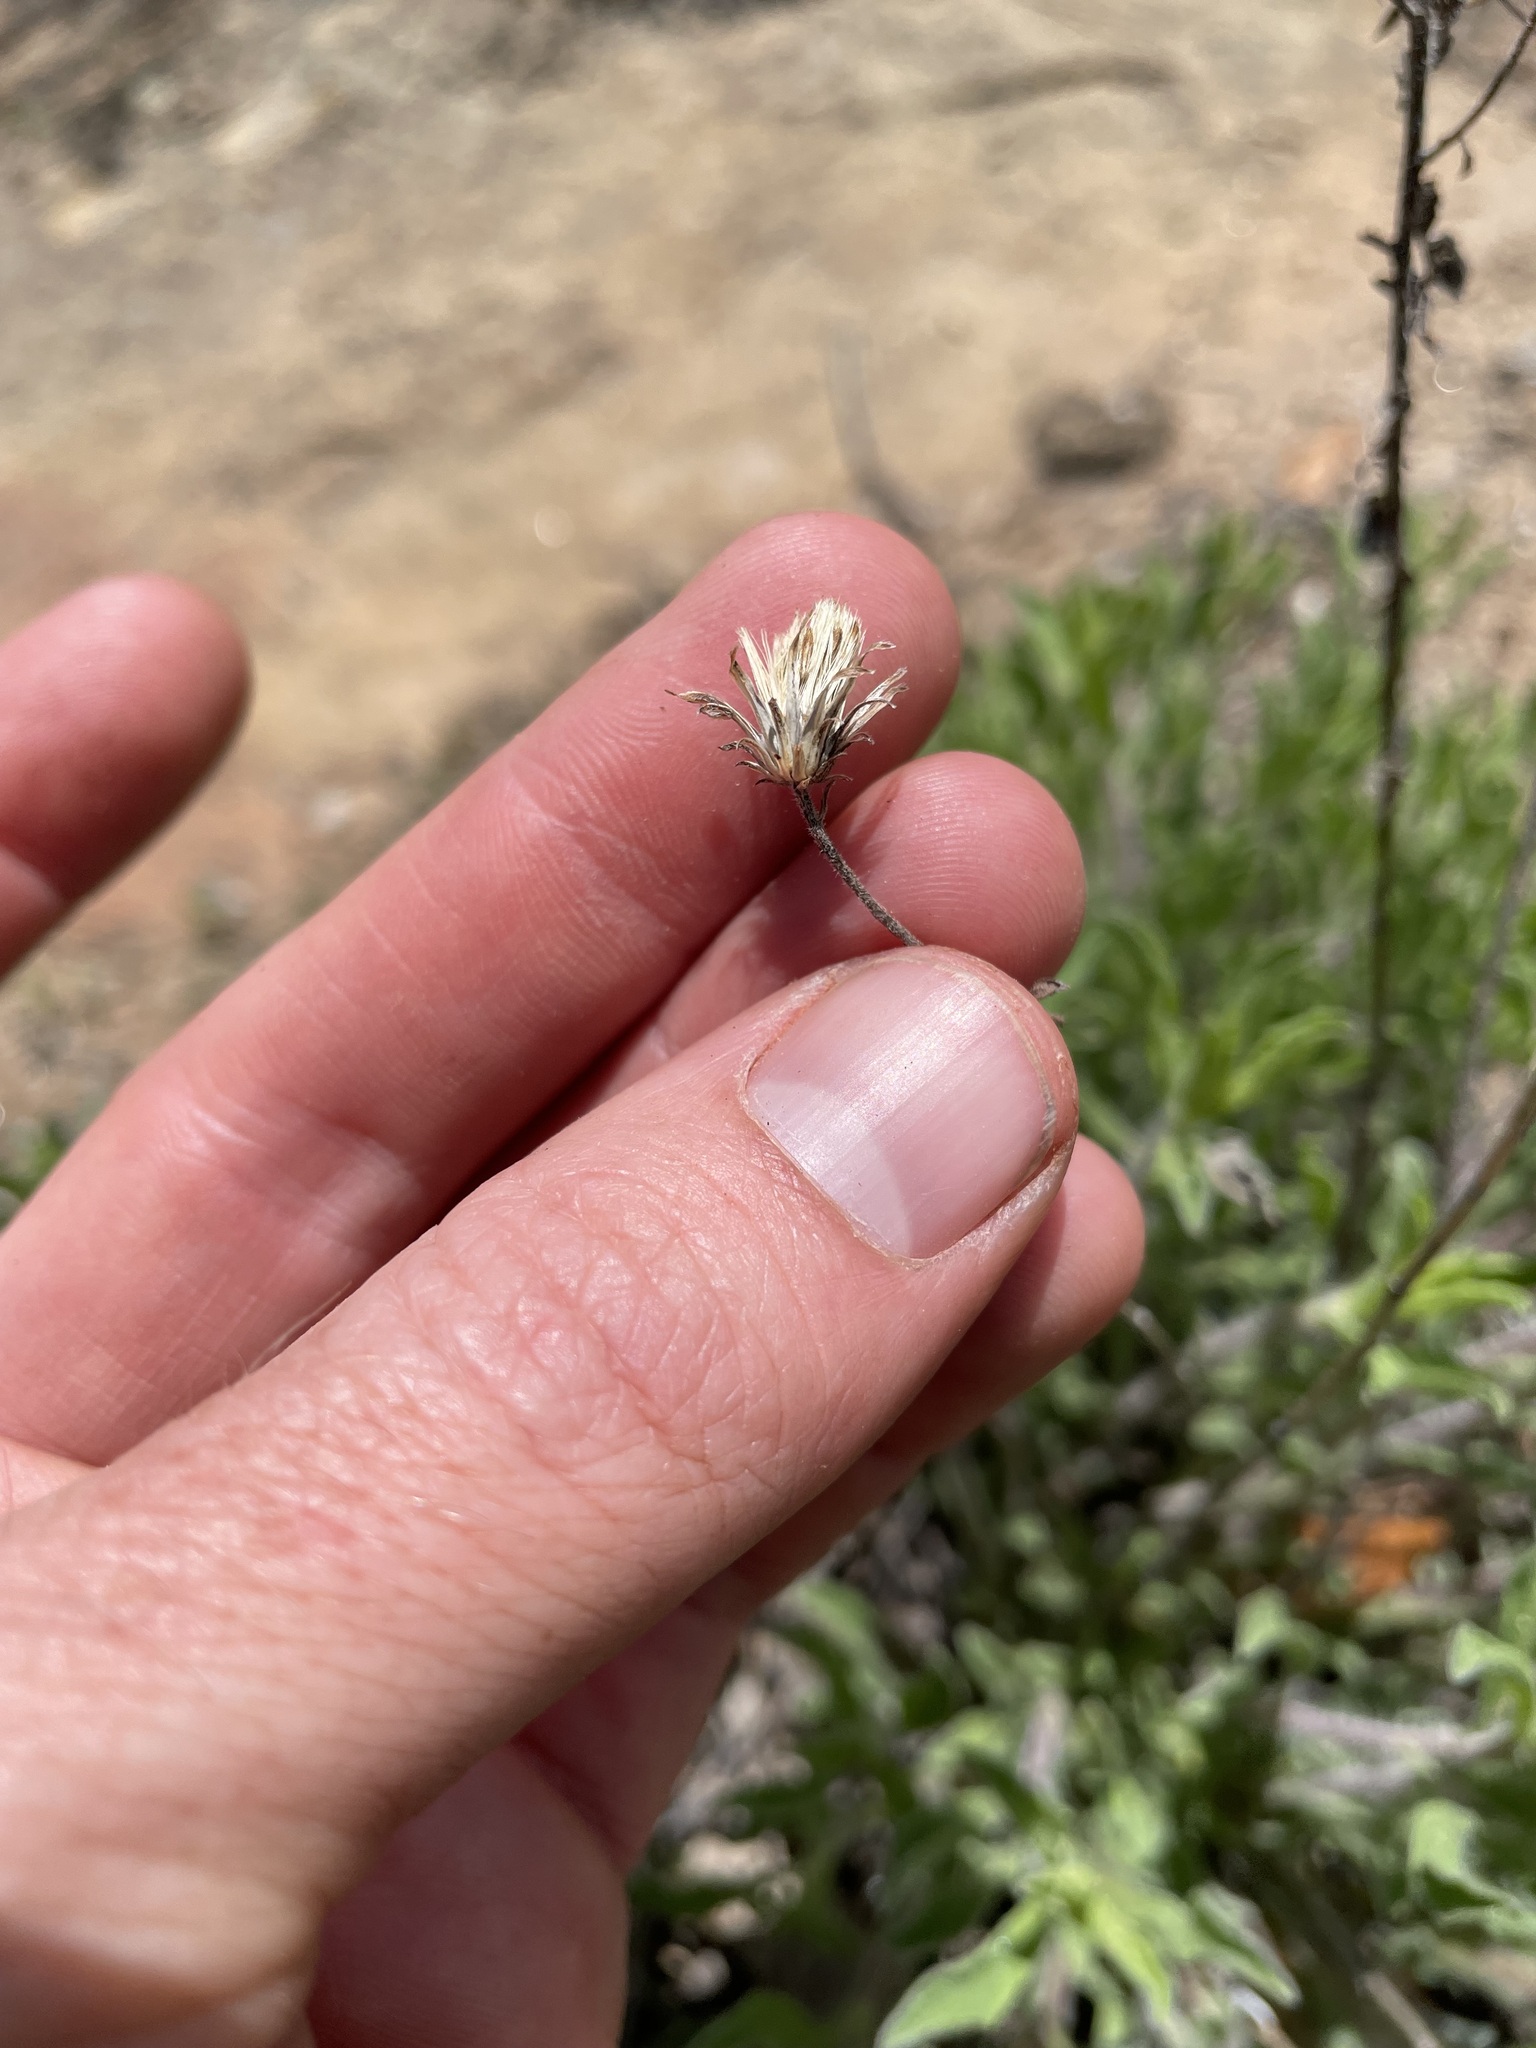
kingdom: Plantae
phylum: Tracheophyta
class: Magnoliopsida
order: Asterales
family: Asteraceae
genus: Heterotheca
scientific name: Heterotheca hirsutissima
